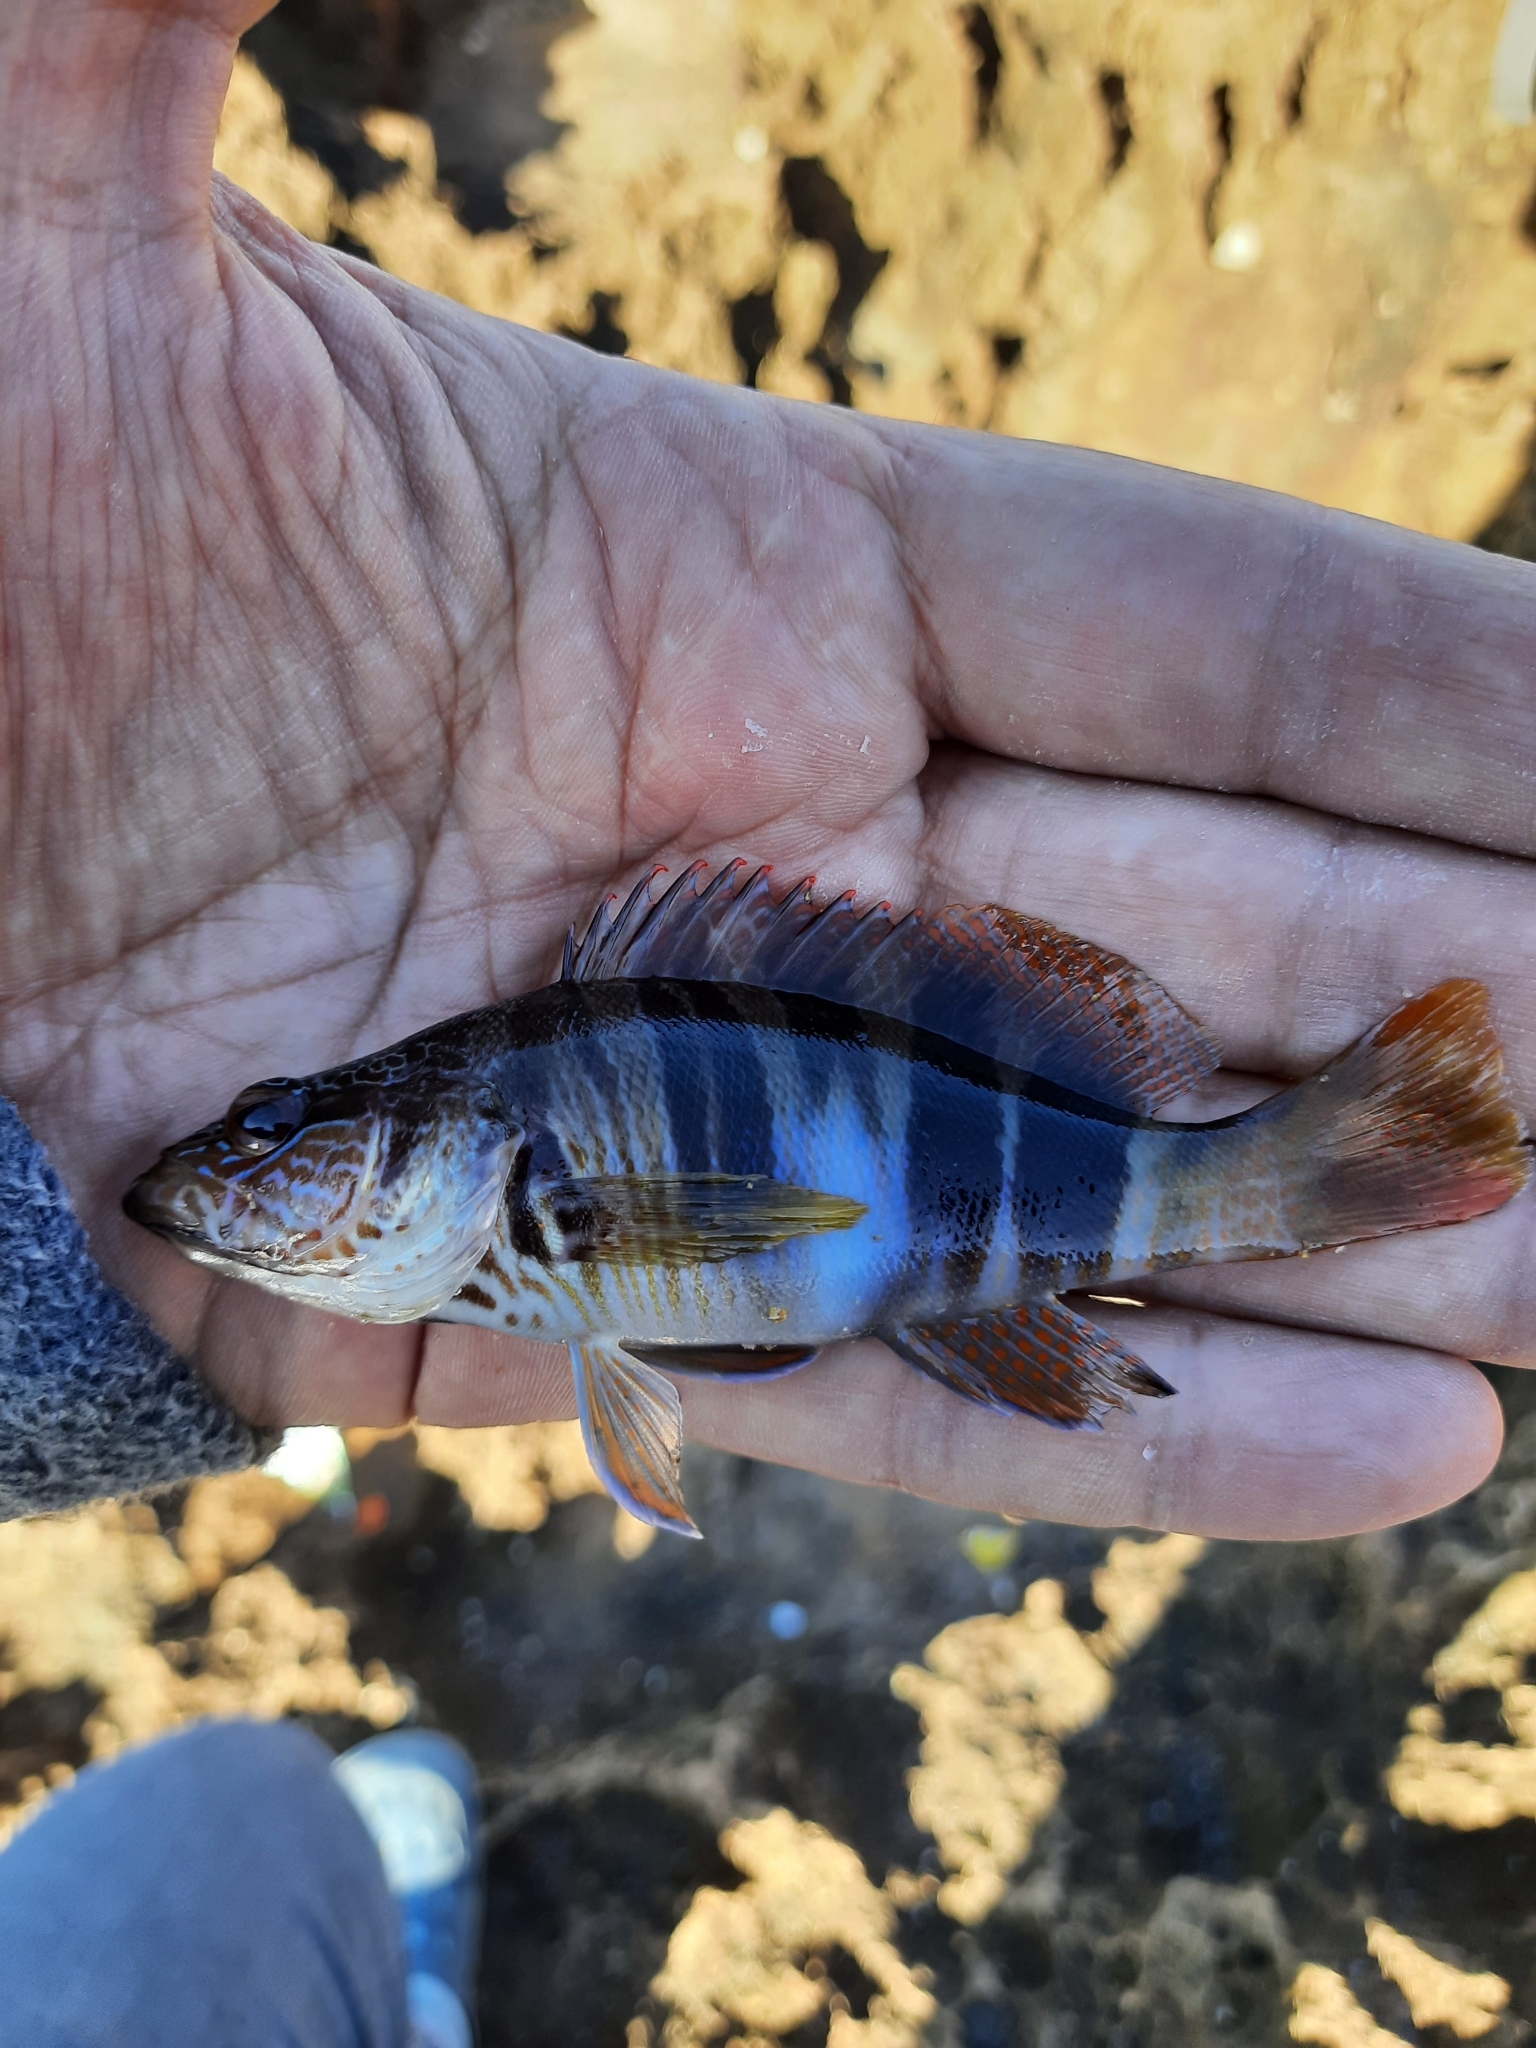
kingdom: Animalia
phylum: Chordata
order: Perciformes
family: Serranidae
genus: Serranus
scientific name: Serranus scriba
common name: Painted comber
